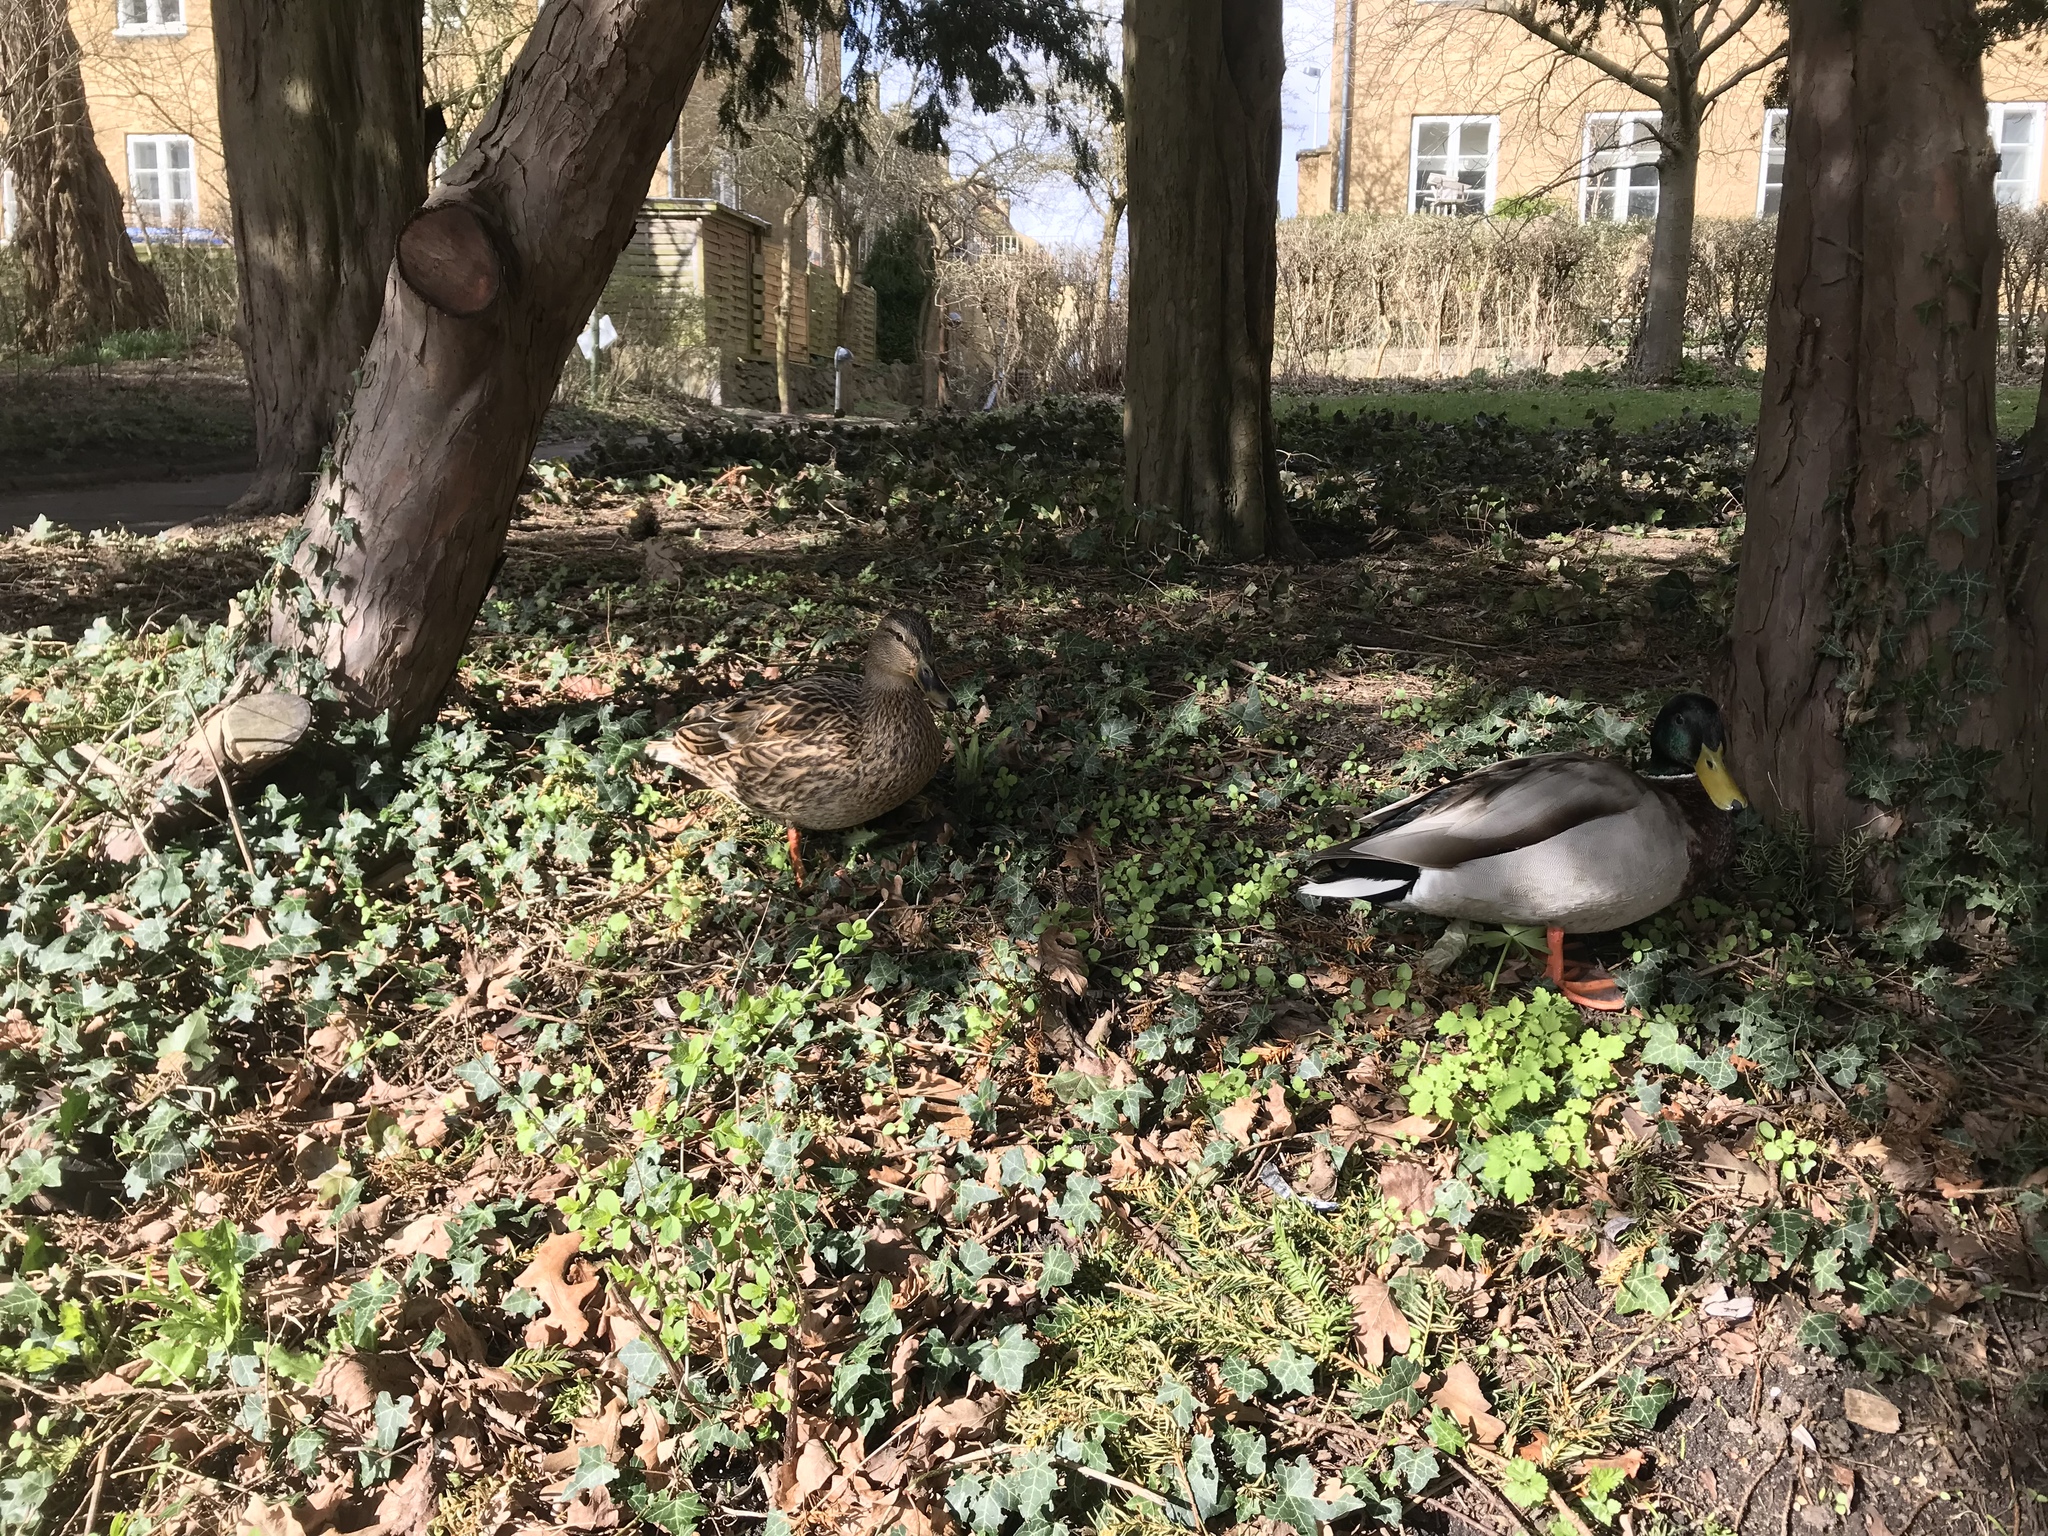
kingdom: Animalia
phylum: Chordata
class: Aves
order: Anseriformes
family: Anatidae
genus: Anas
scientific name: Anas platyrhynchos
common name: Mallard
